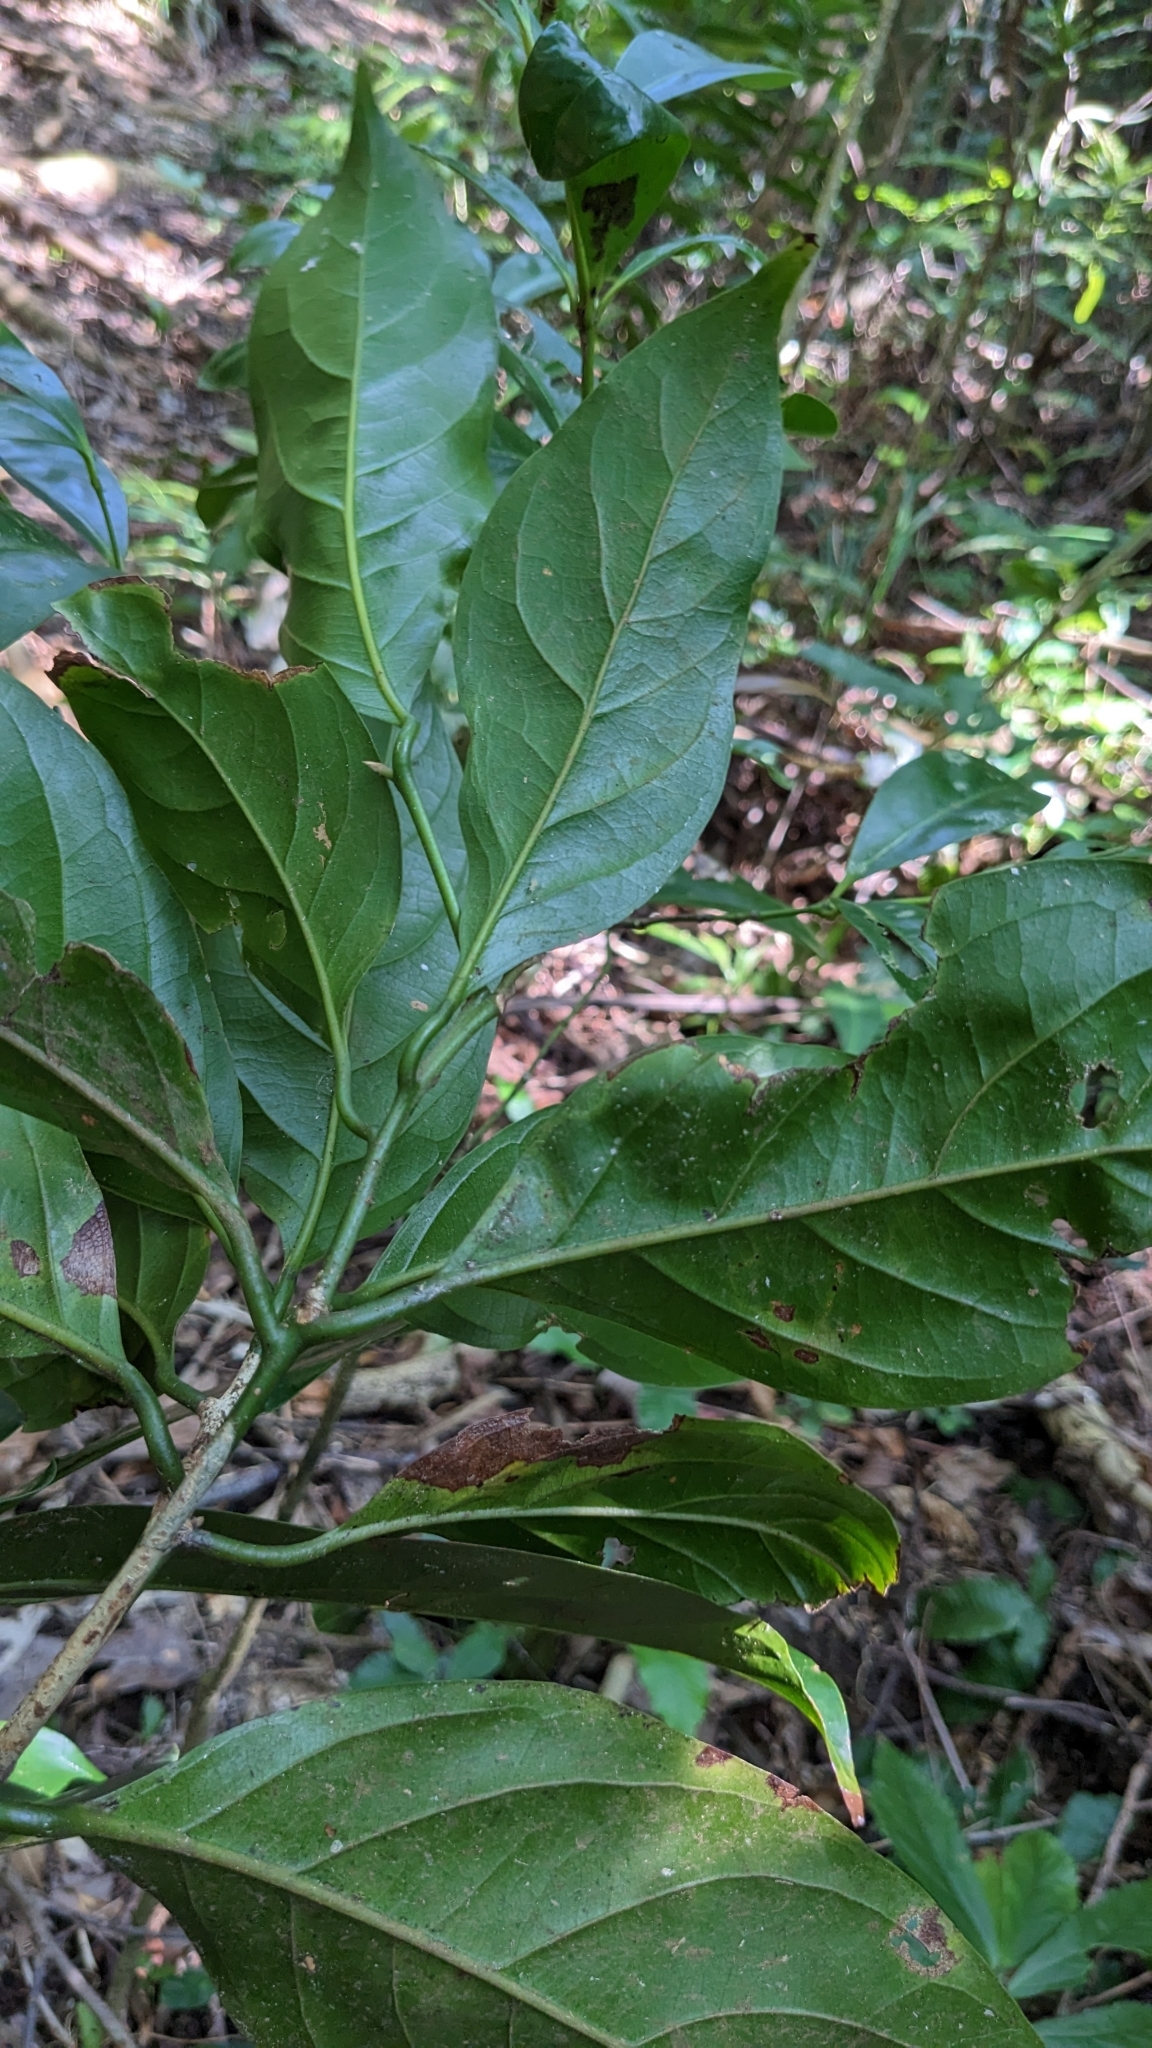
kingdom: Plantae
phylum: Tracheophyta
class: Magnoliopsida
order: Laurales
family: Lauraceae
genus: Endiandra
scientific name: Endiandra coriacea
